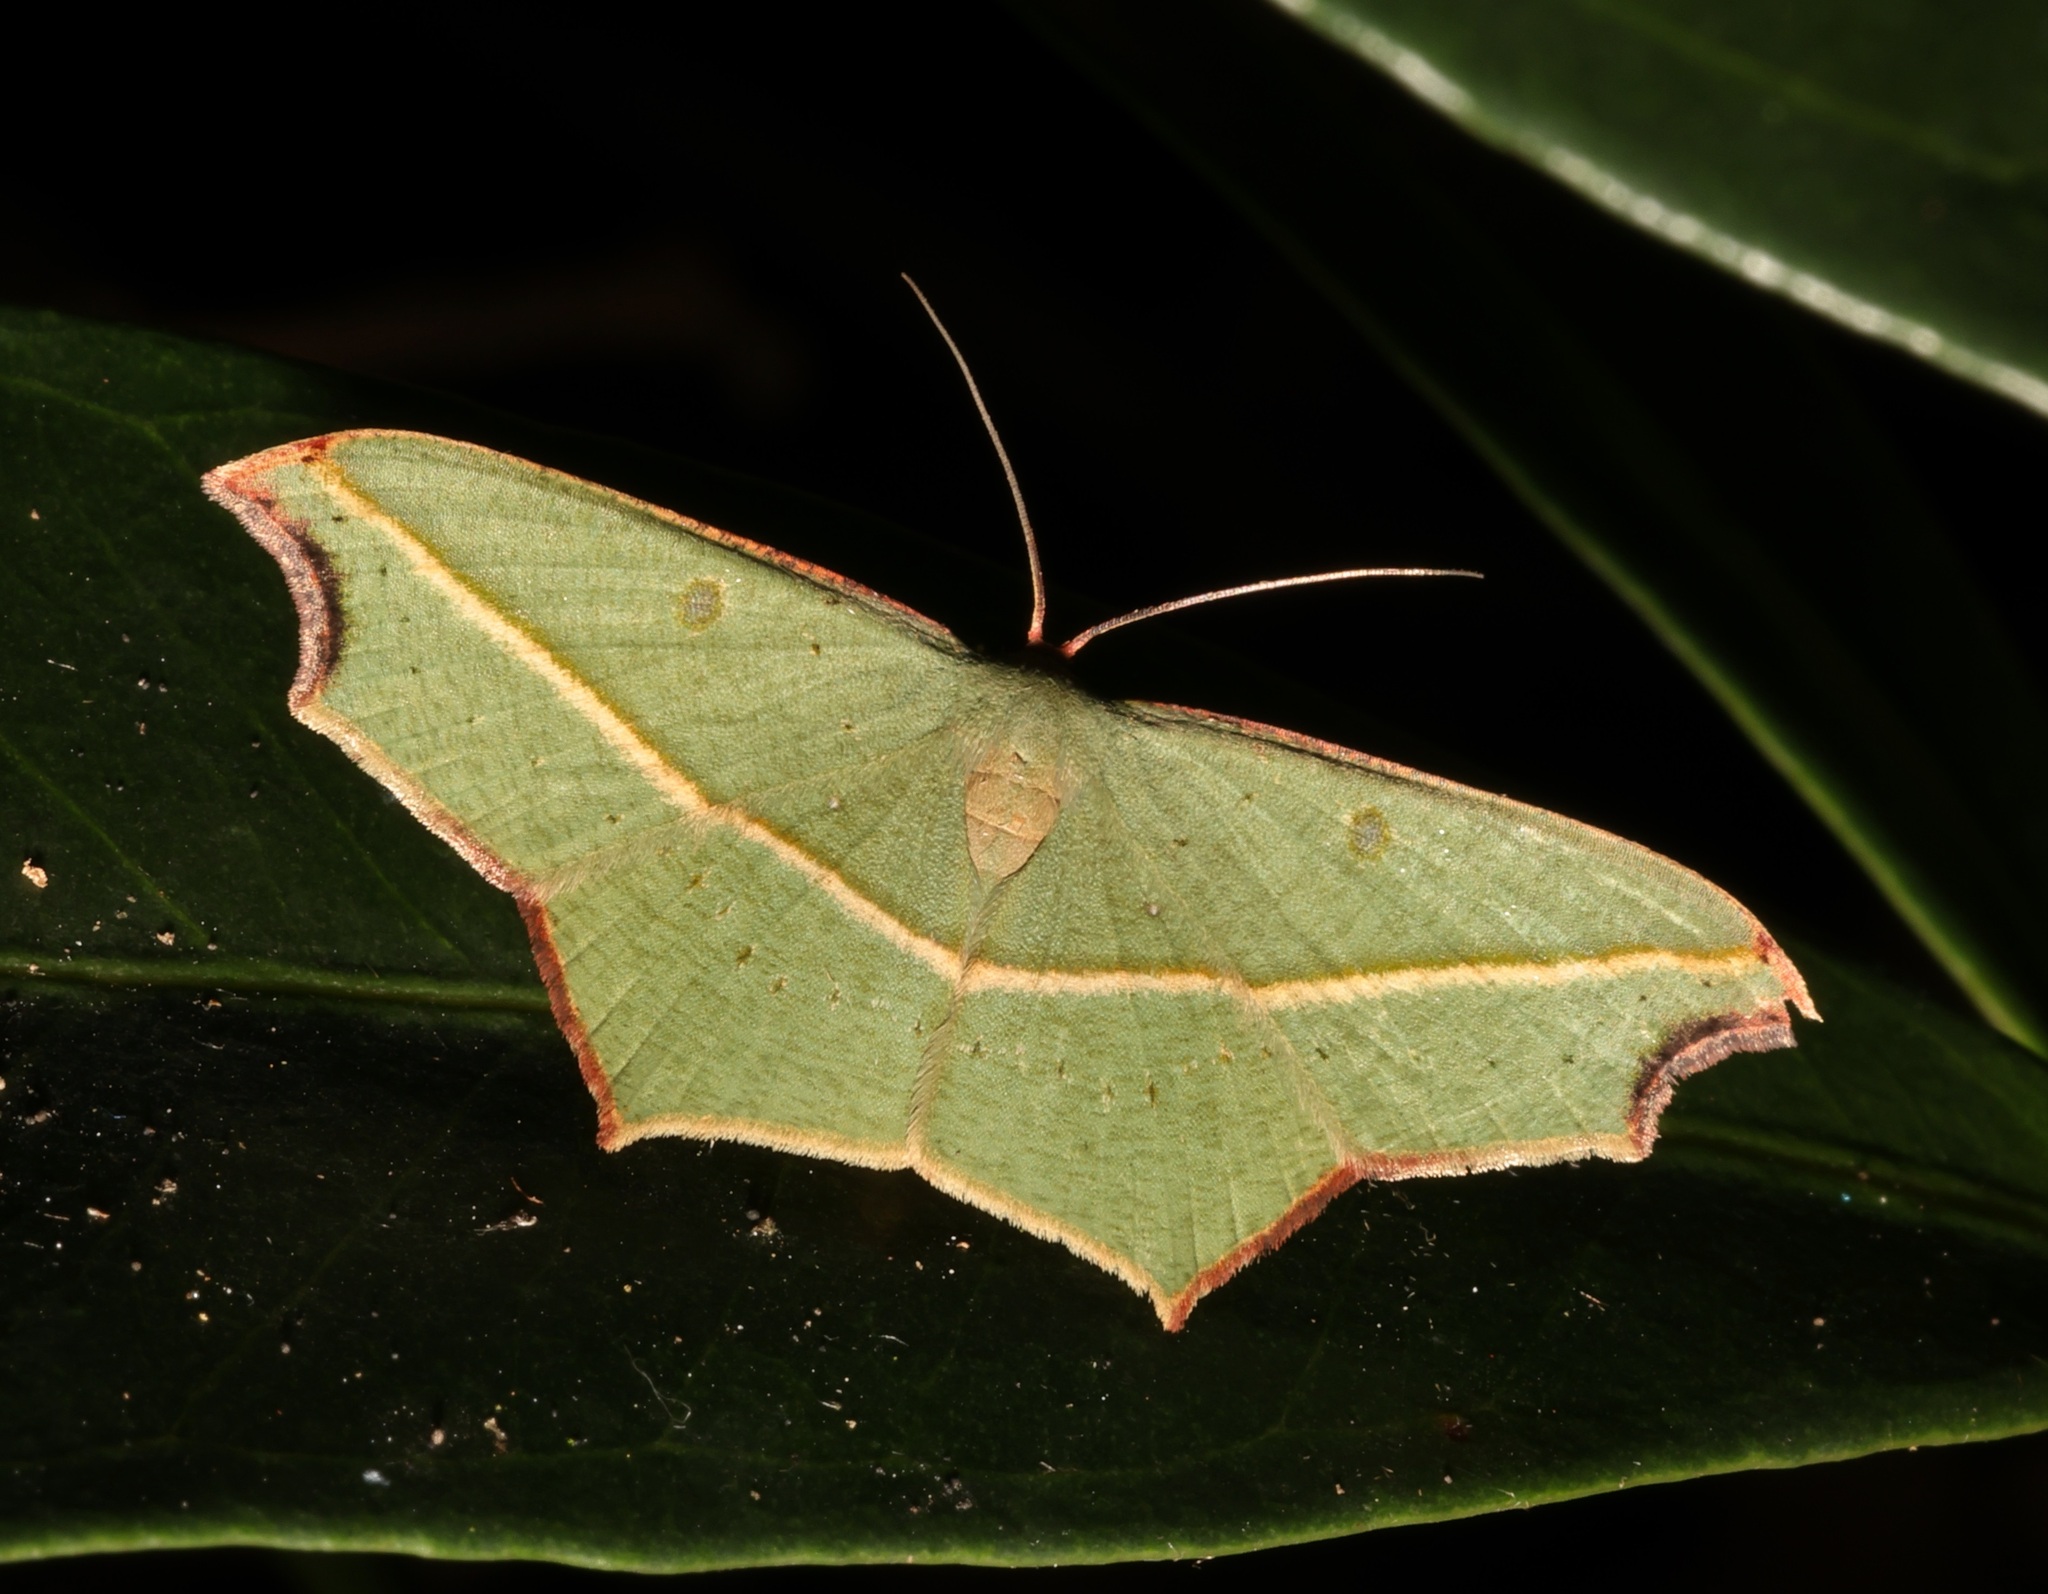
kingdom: Animalia
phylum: Arthropoda
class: Insecta
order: Lepidoptera
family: Geometridae
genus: Traminda
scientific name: Traminda aventiaria
